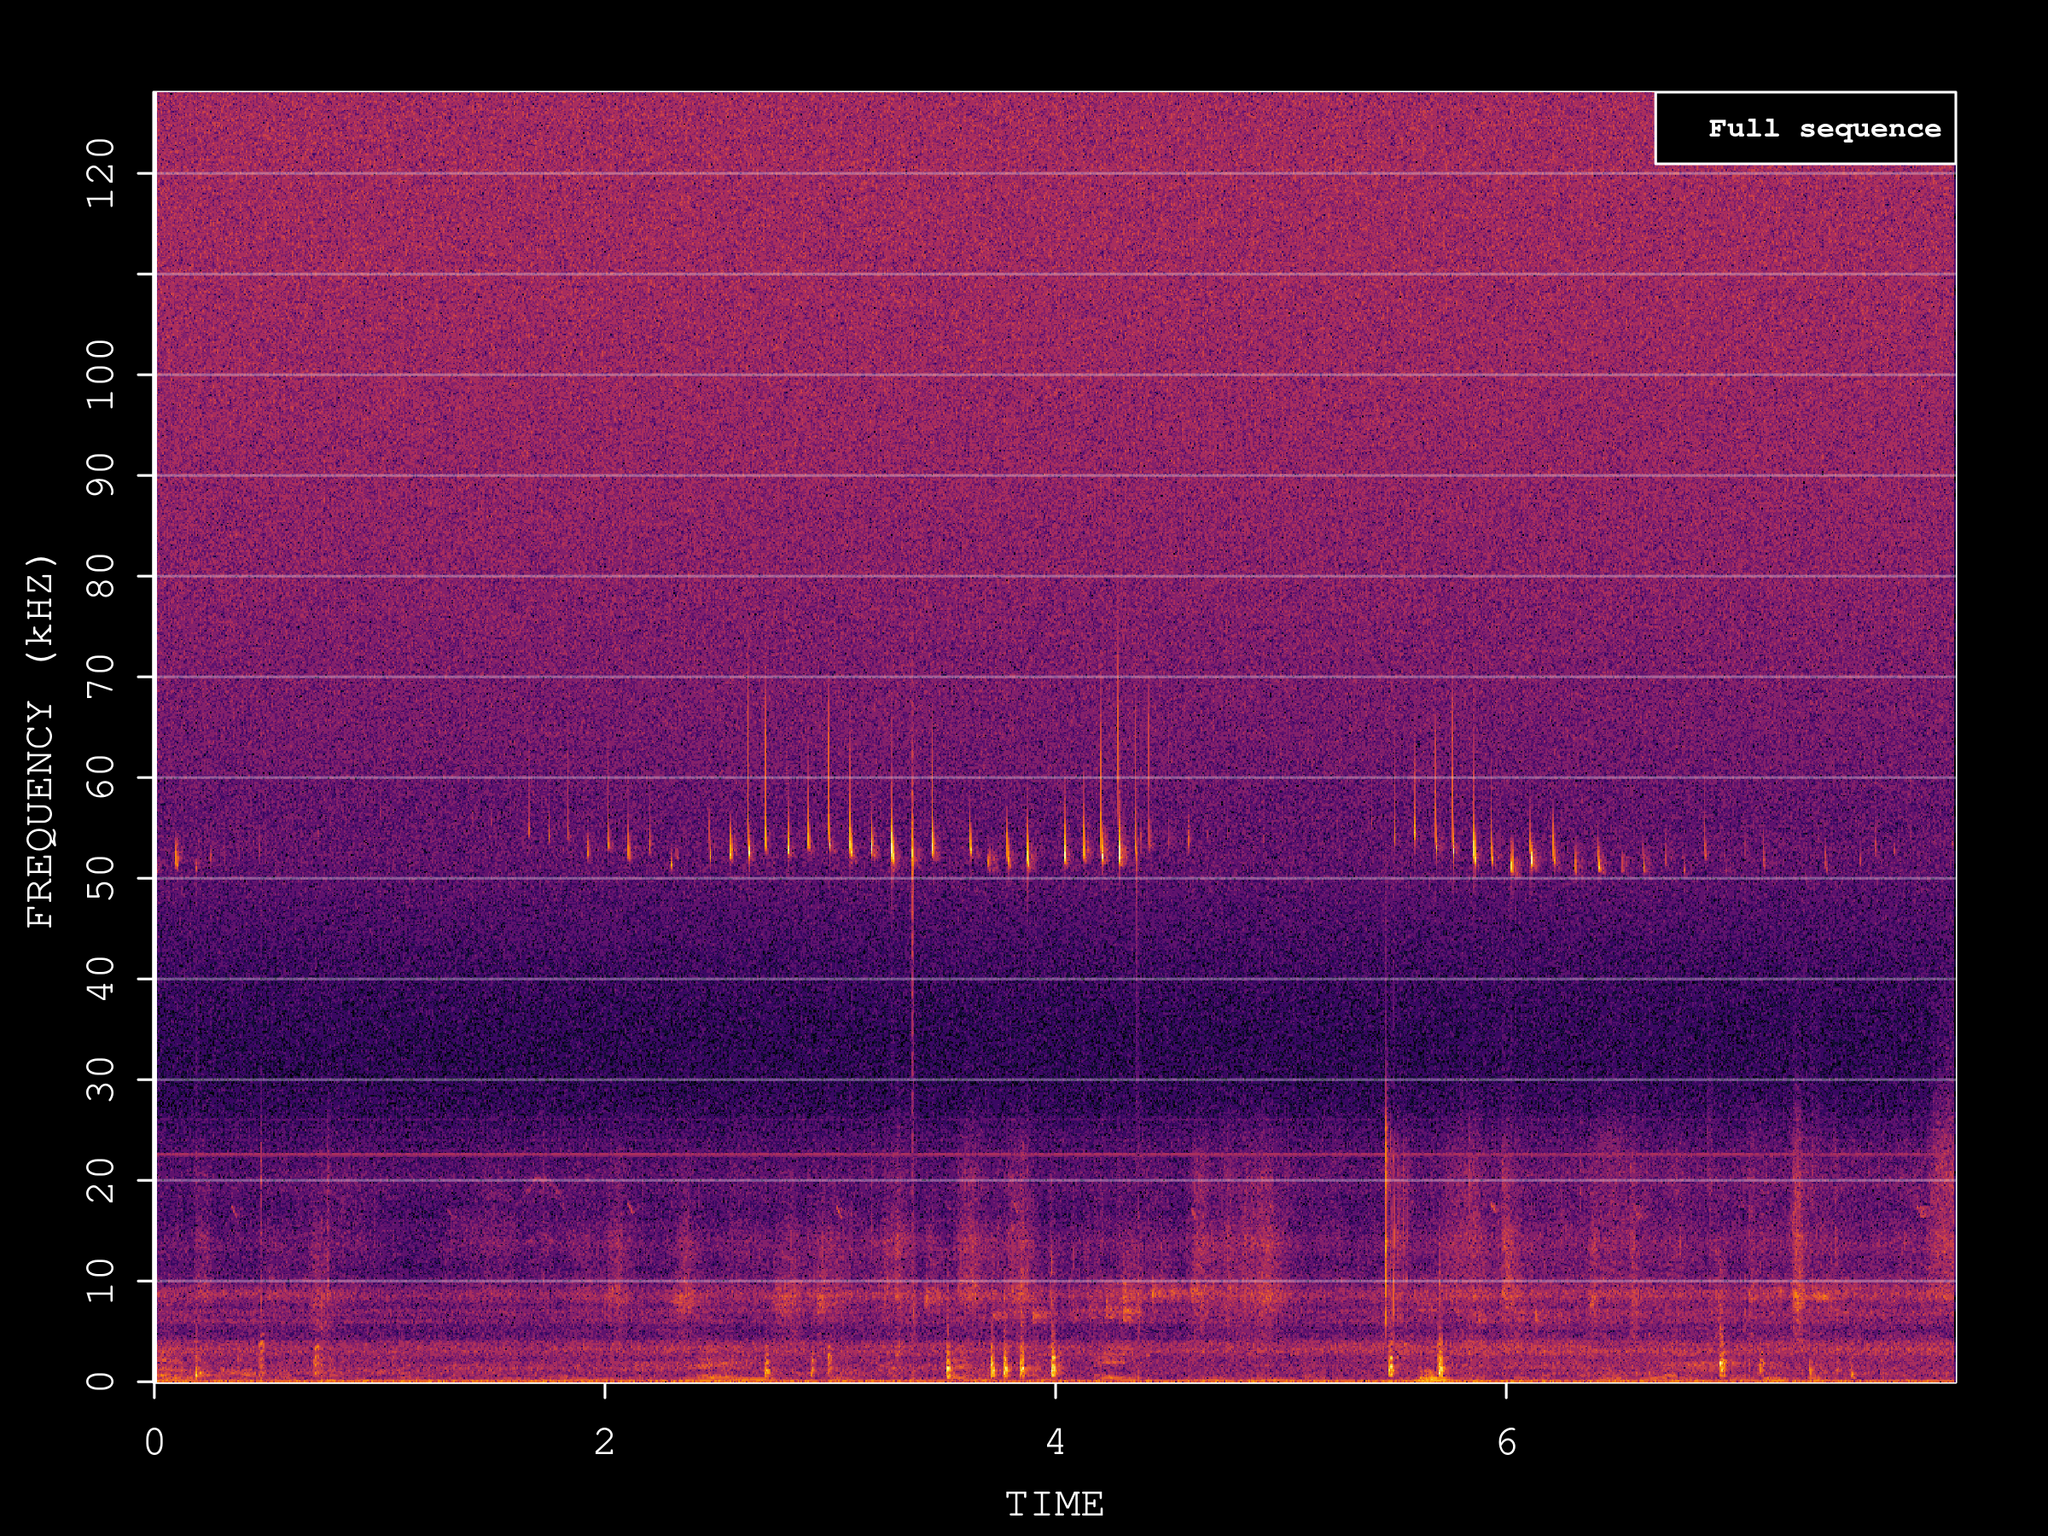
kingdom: Animalia
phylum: Chordata
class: Mammalia
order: Chiroptera
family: Vespertilionidae
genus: Pipistrellus
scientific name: Pipistrellus pygmaeus
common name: Soprano pipistrelle
